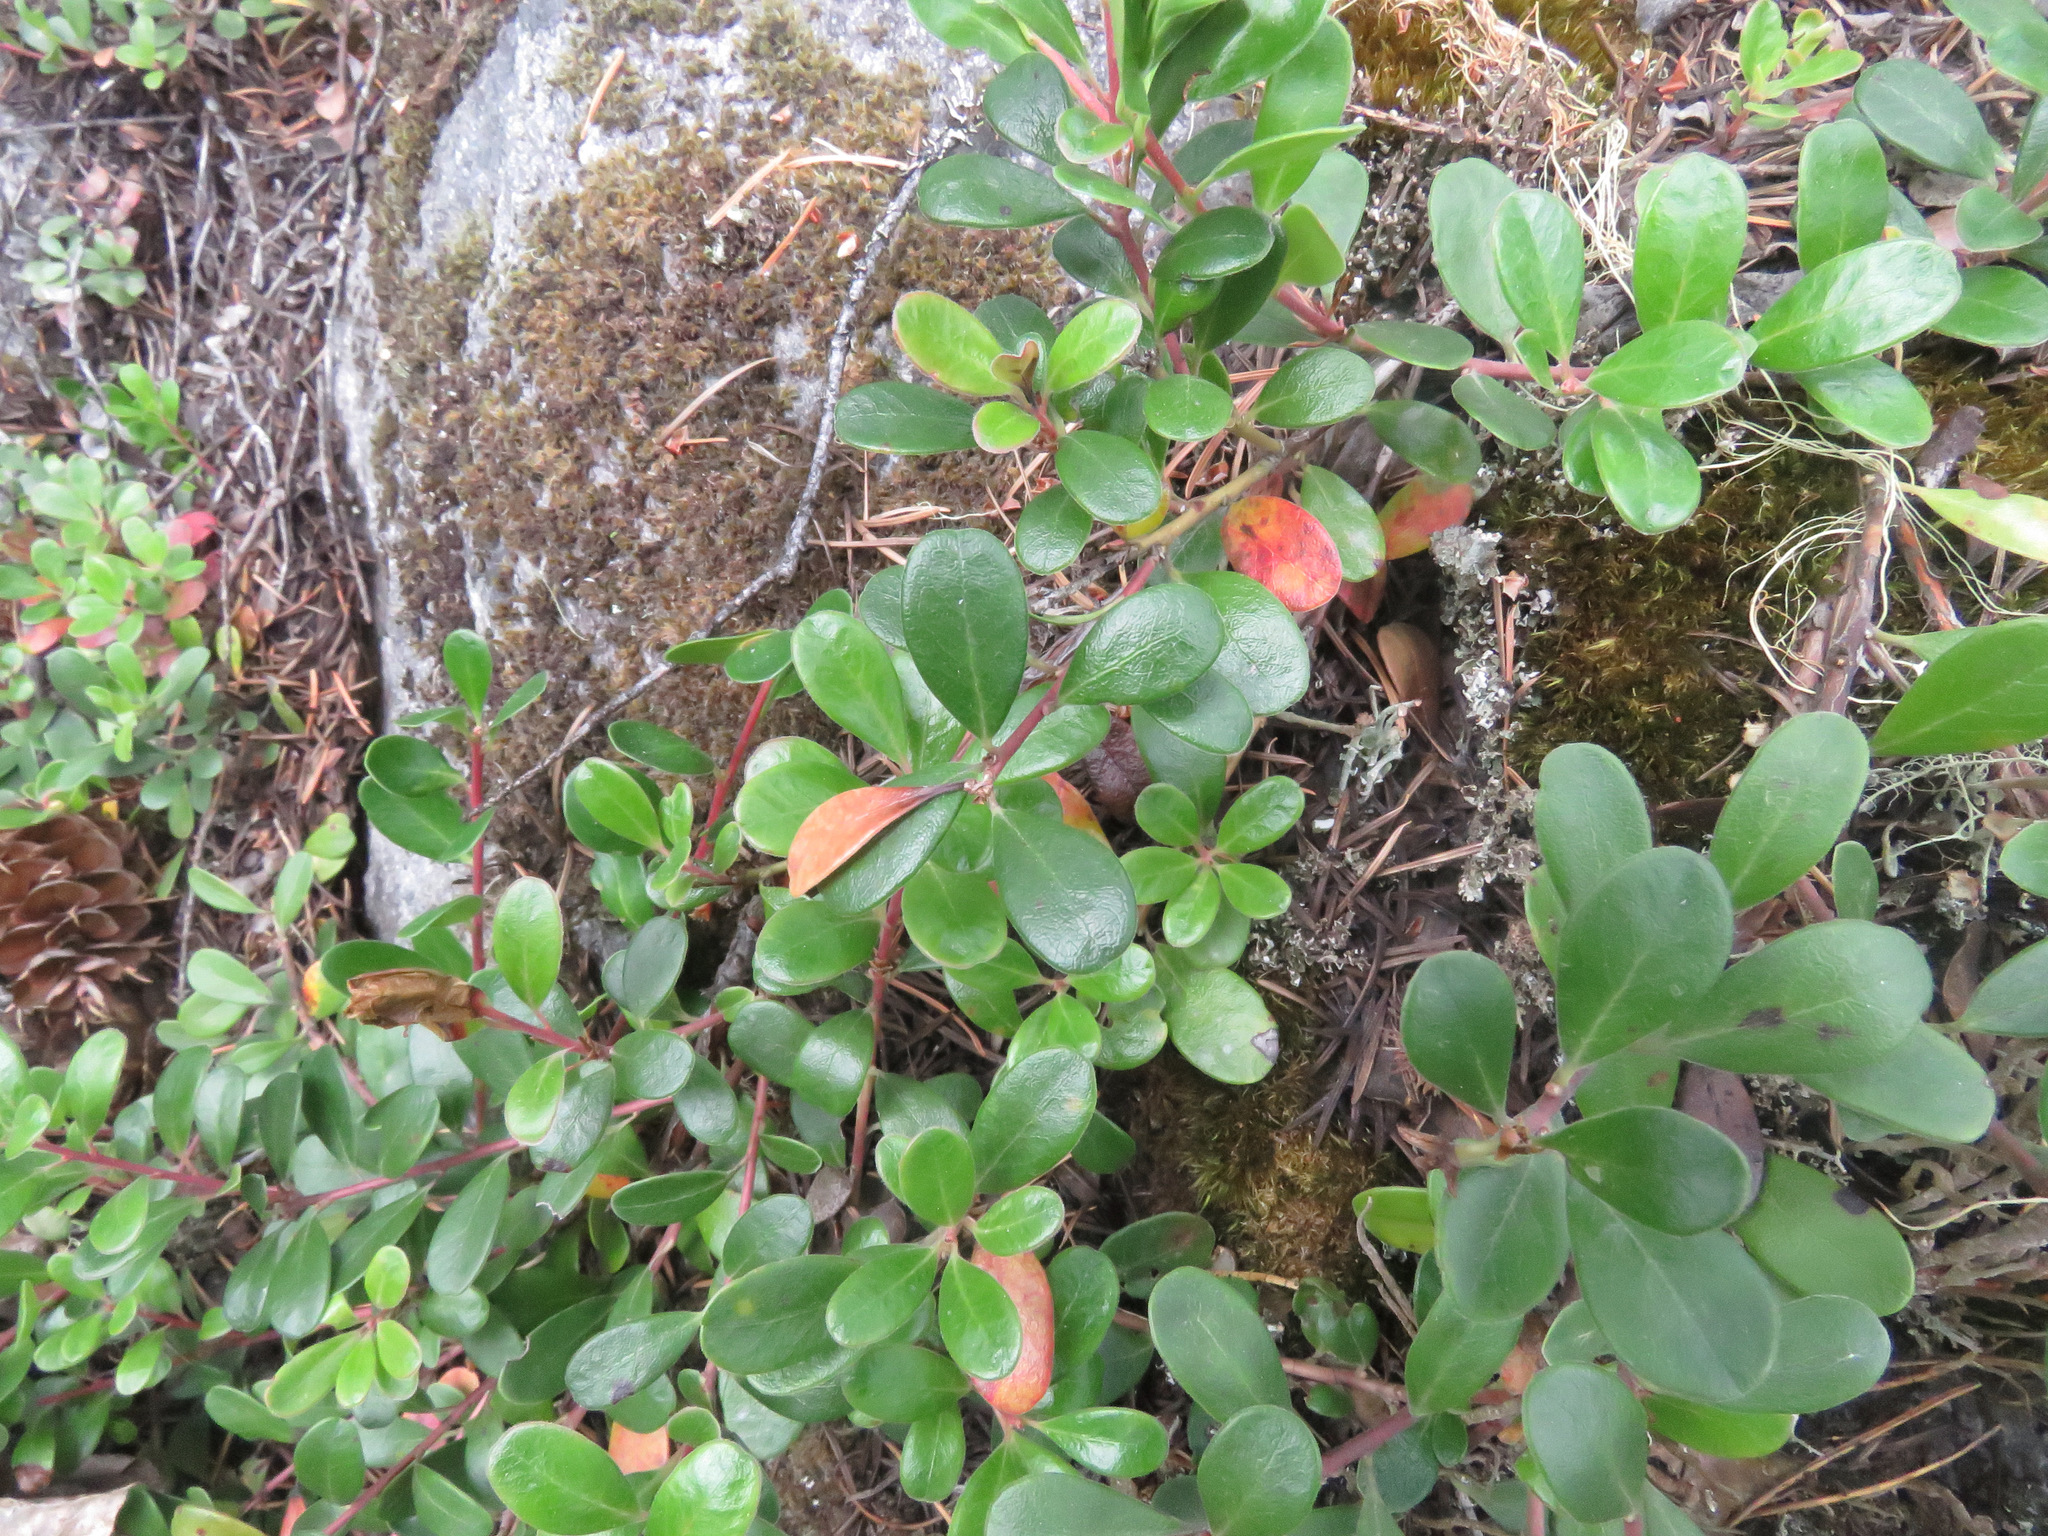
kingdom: Plantae
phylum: Tracheophyta
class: Magnoliopsida
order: Ericales
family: Ericaceae
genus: Arctostaphylos
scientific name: Arctostaphylos uva-ursi
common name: Bearberry
